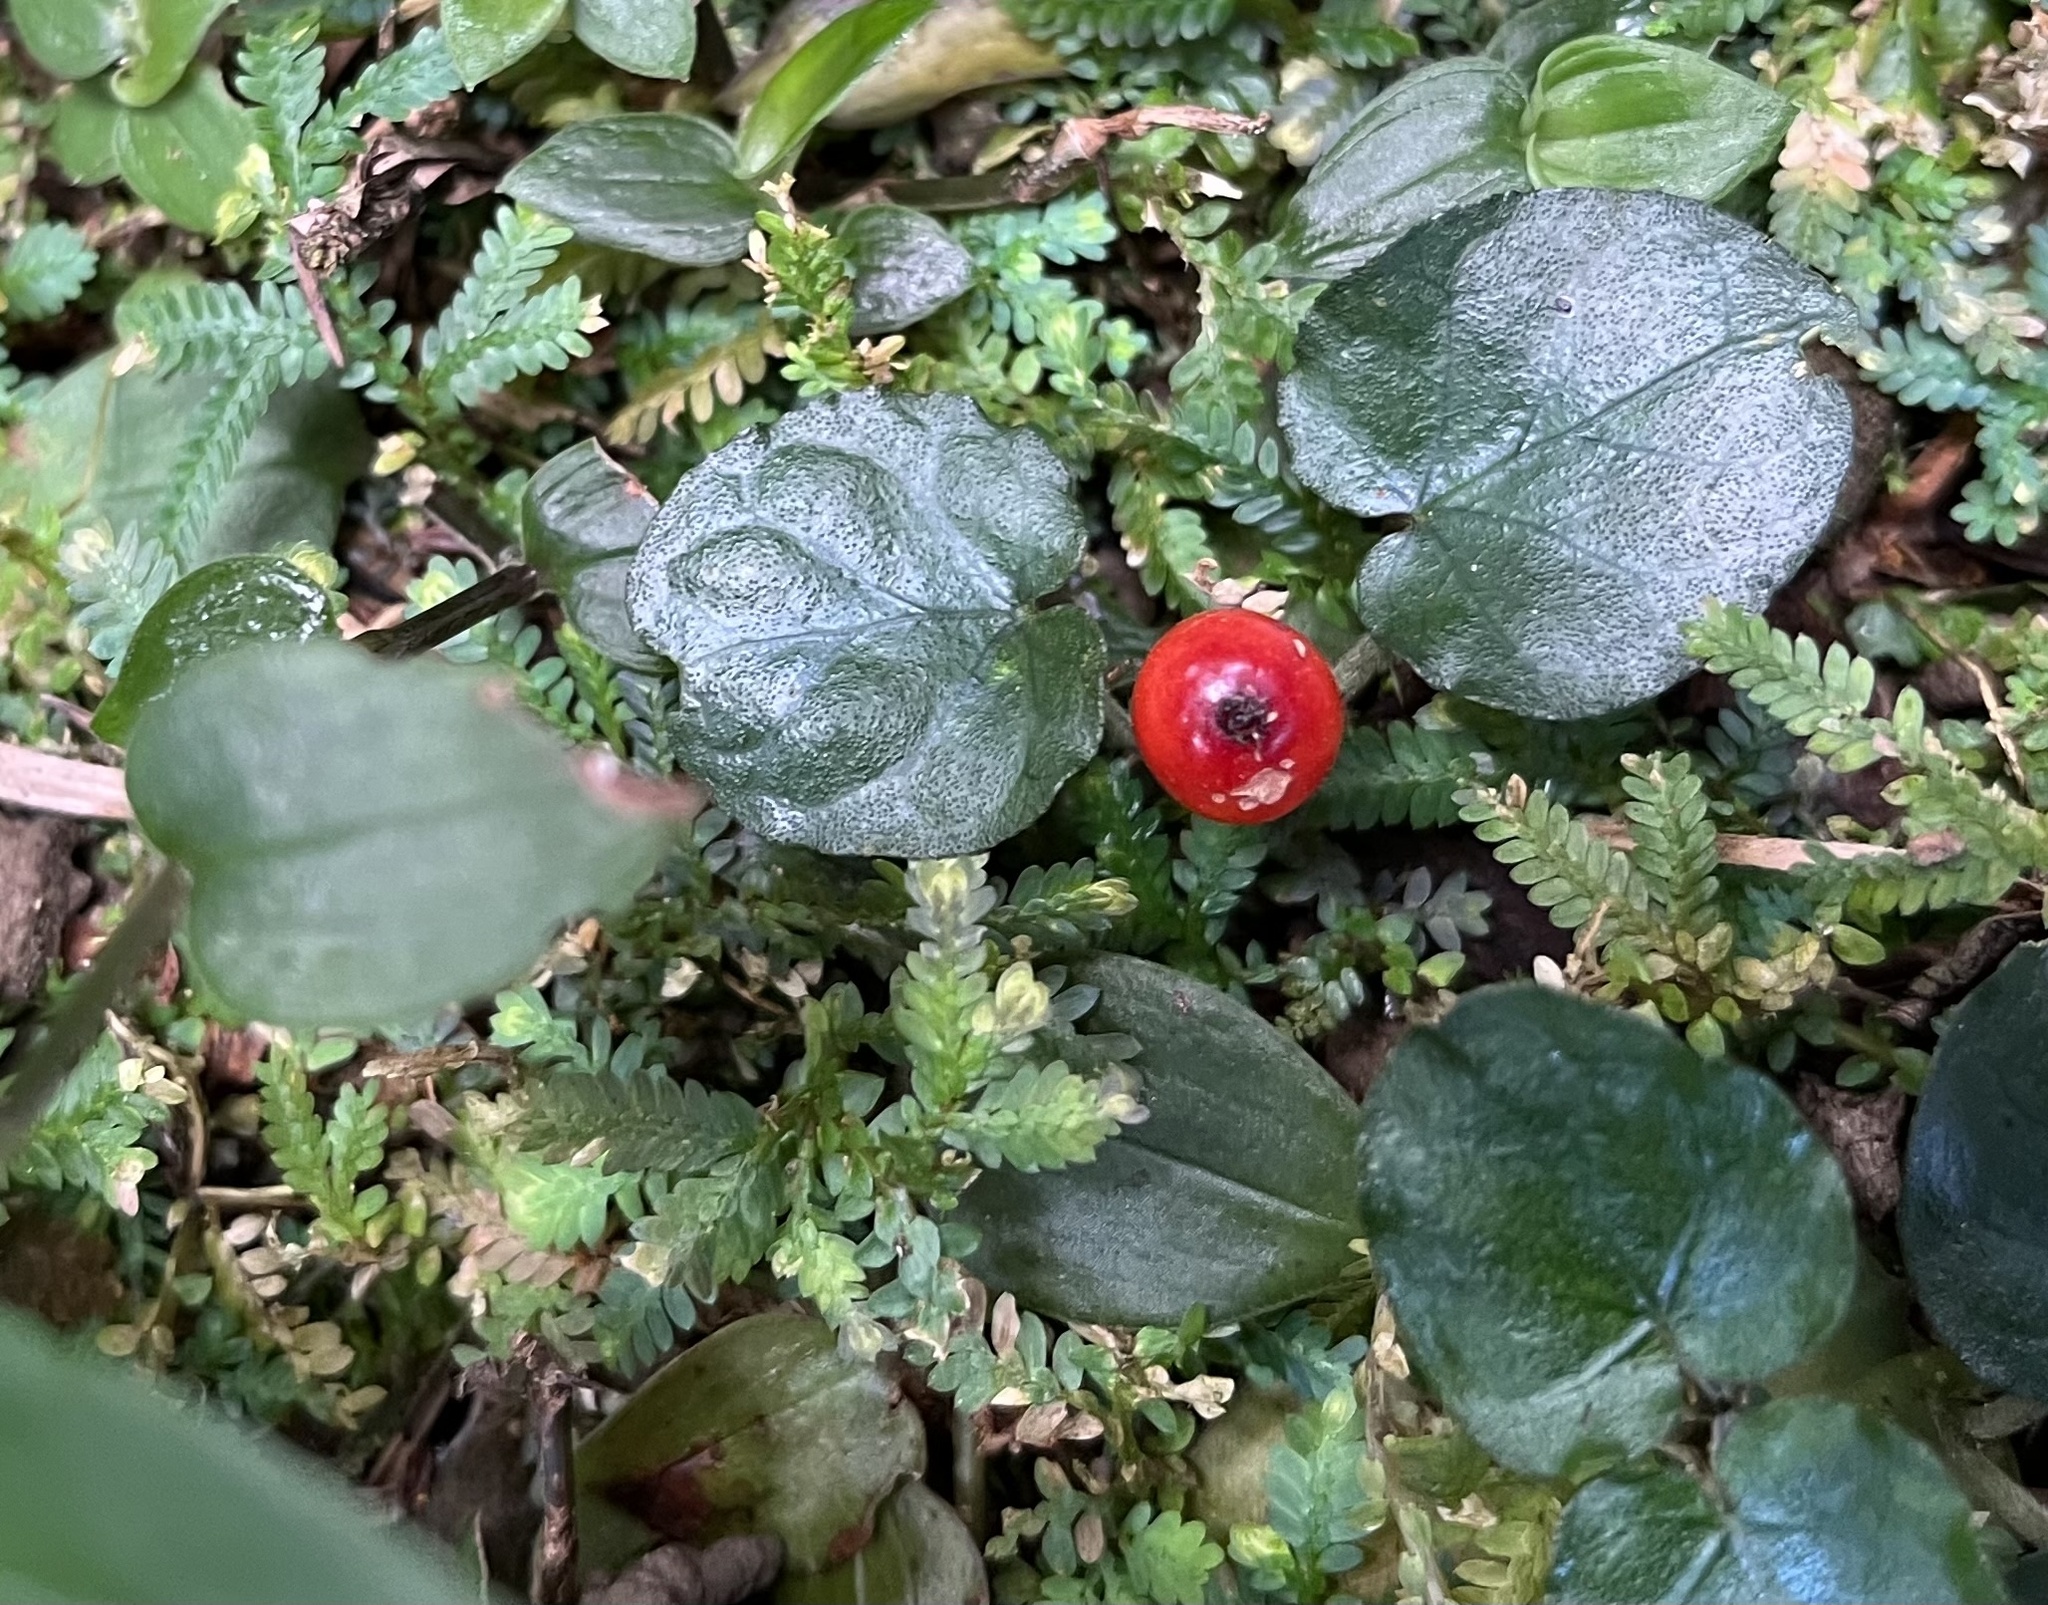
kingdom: Plantae
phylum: Tracheophyta
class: Magnoliopsida
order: Gentianales
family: Rubiaceae
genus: Geophila
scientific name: Geophila herbacea
